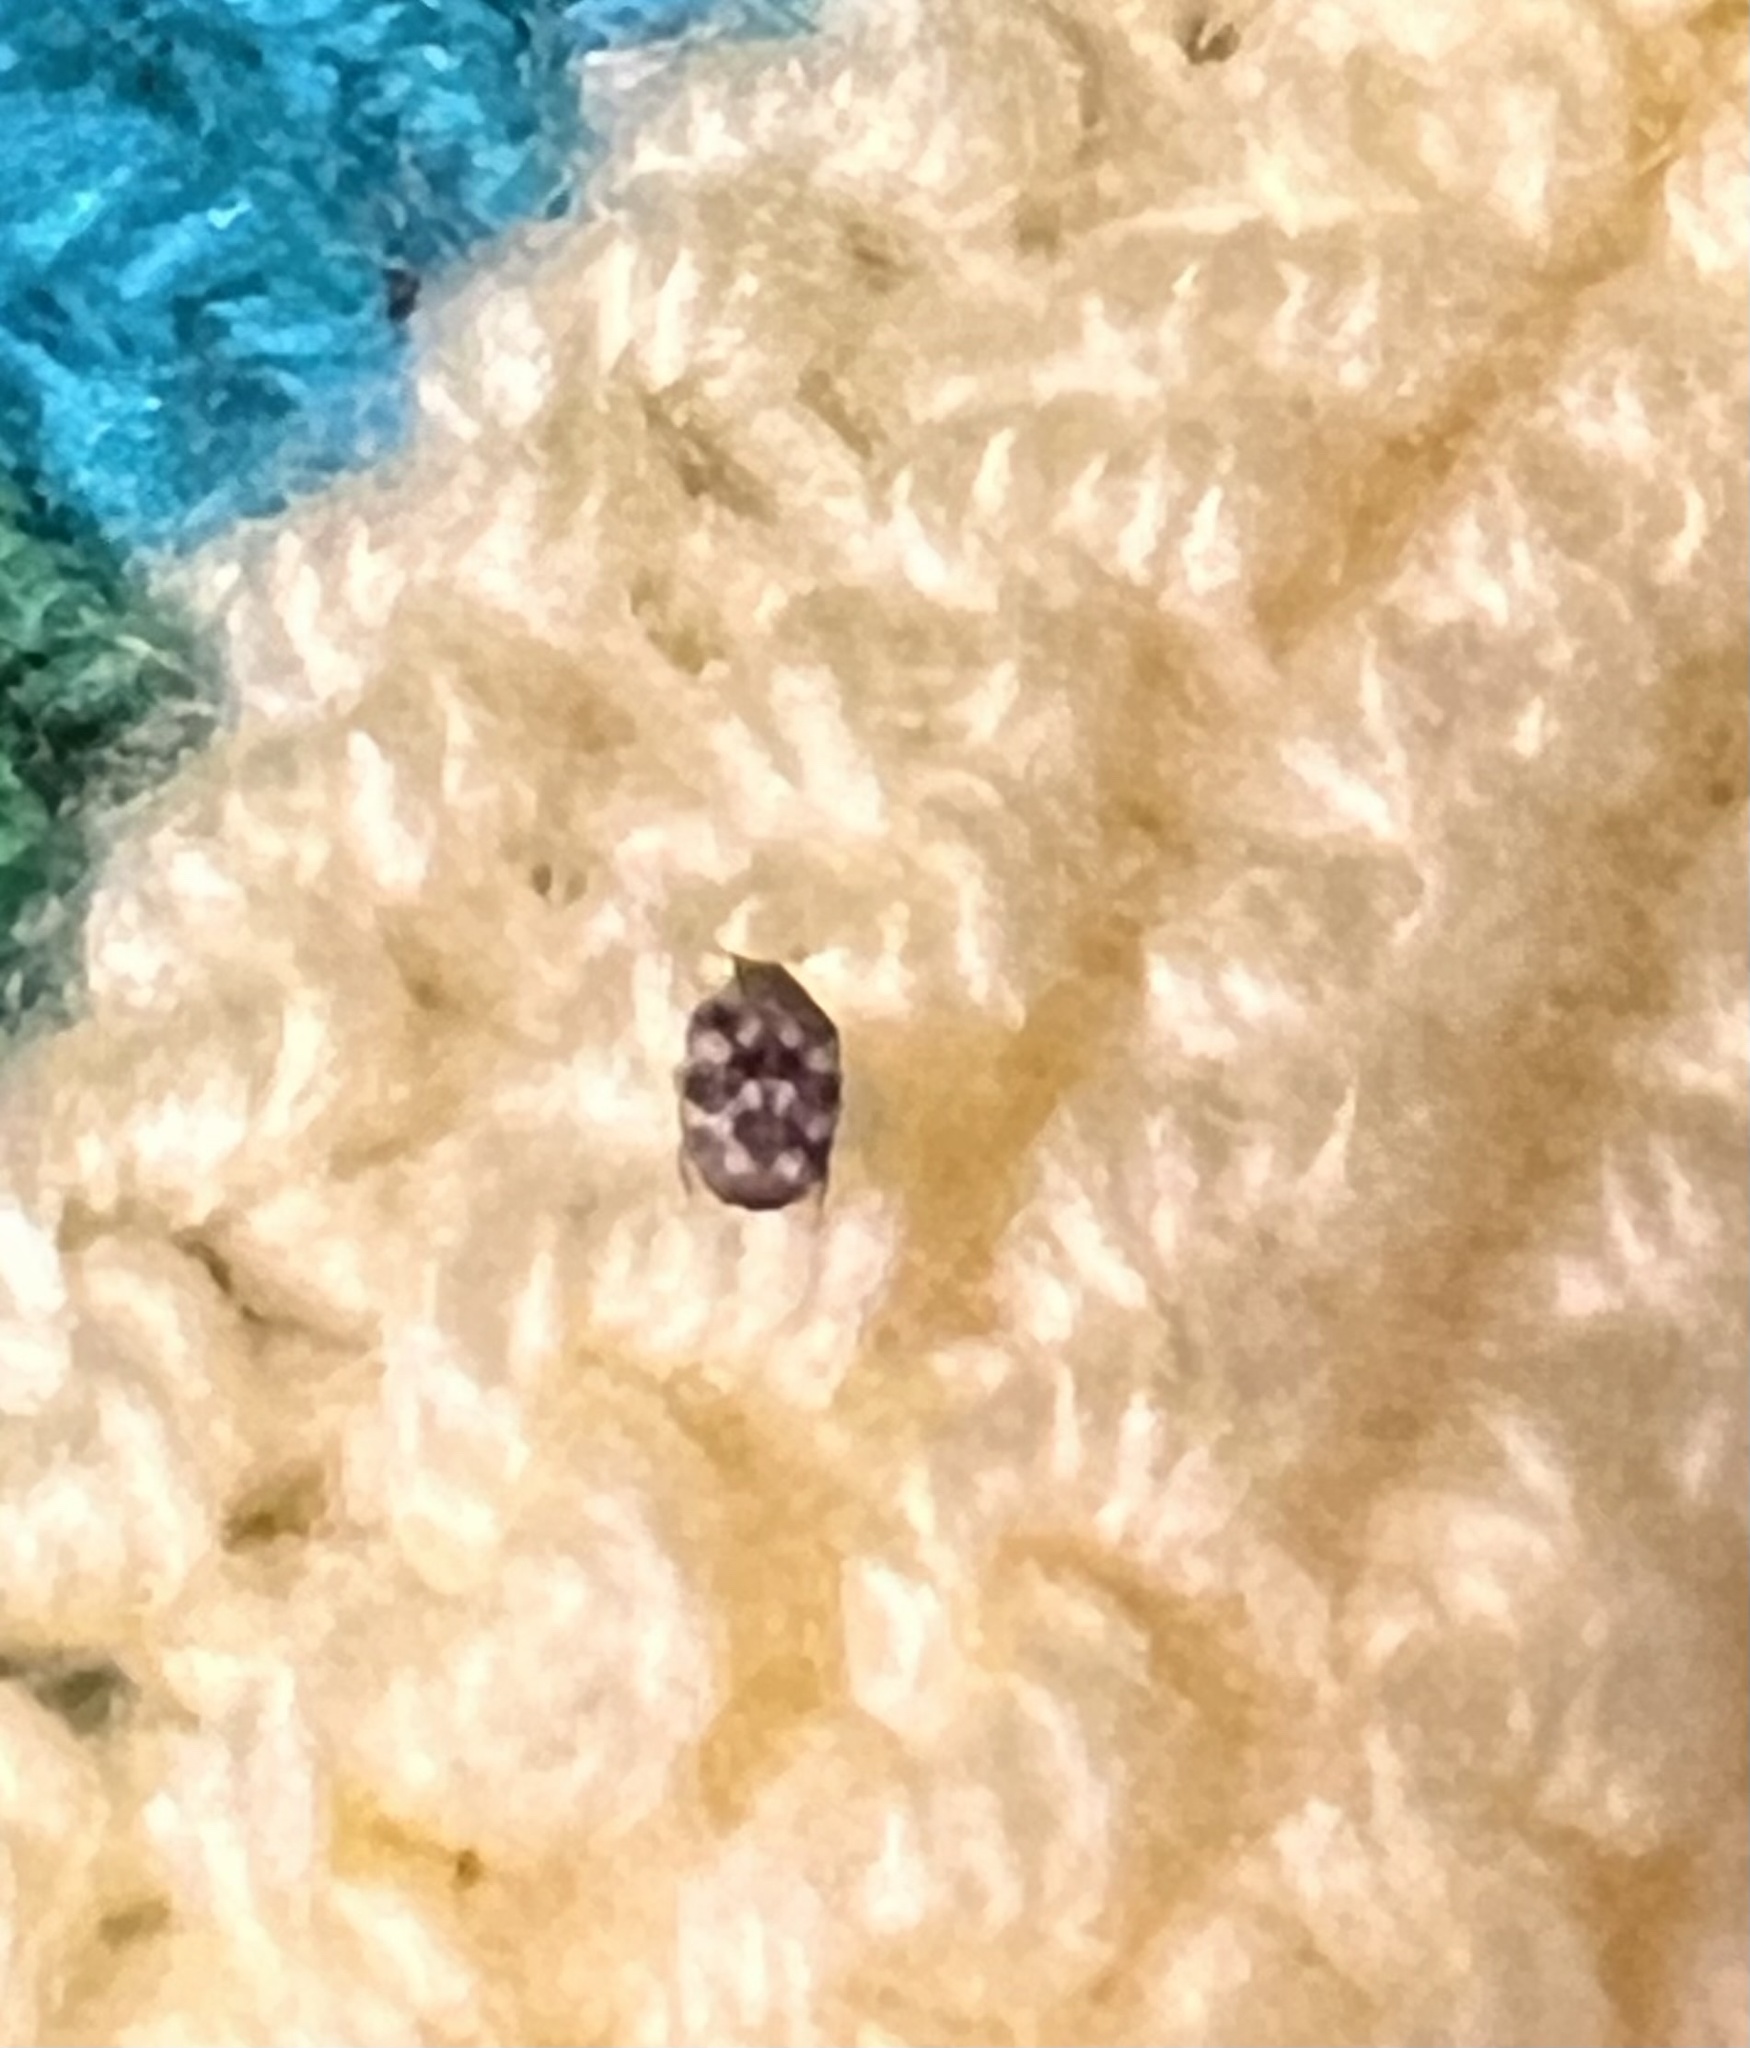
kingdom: Animalia
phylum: Arthropoda
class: Insecta
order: Coleoptera
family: Dermestidae
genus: Anthrenus
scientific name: Anthrenus verbasci
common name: Varied carpet beetle
